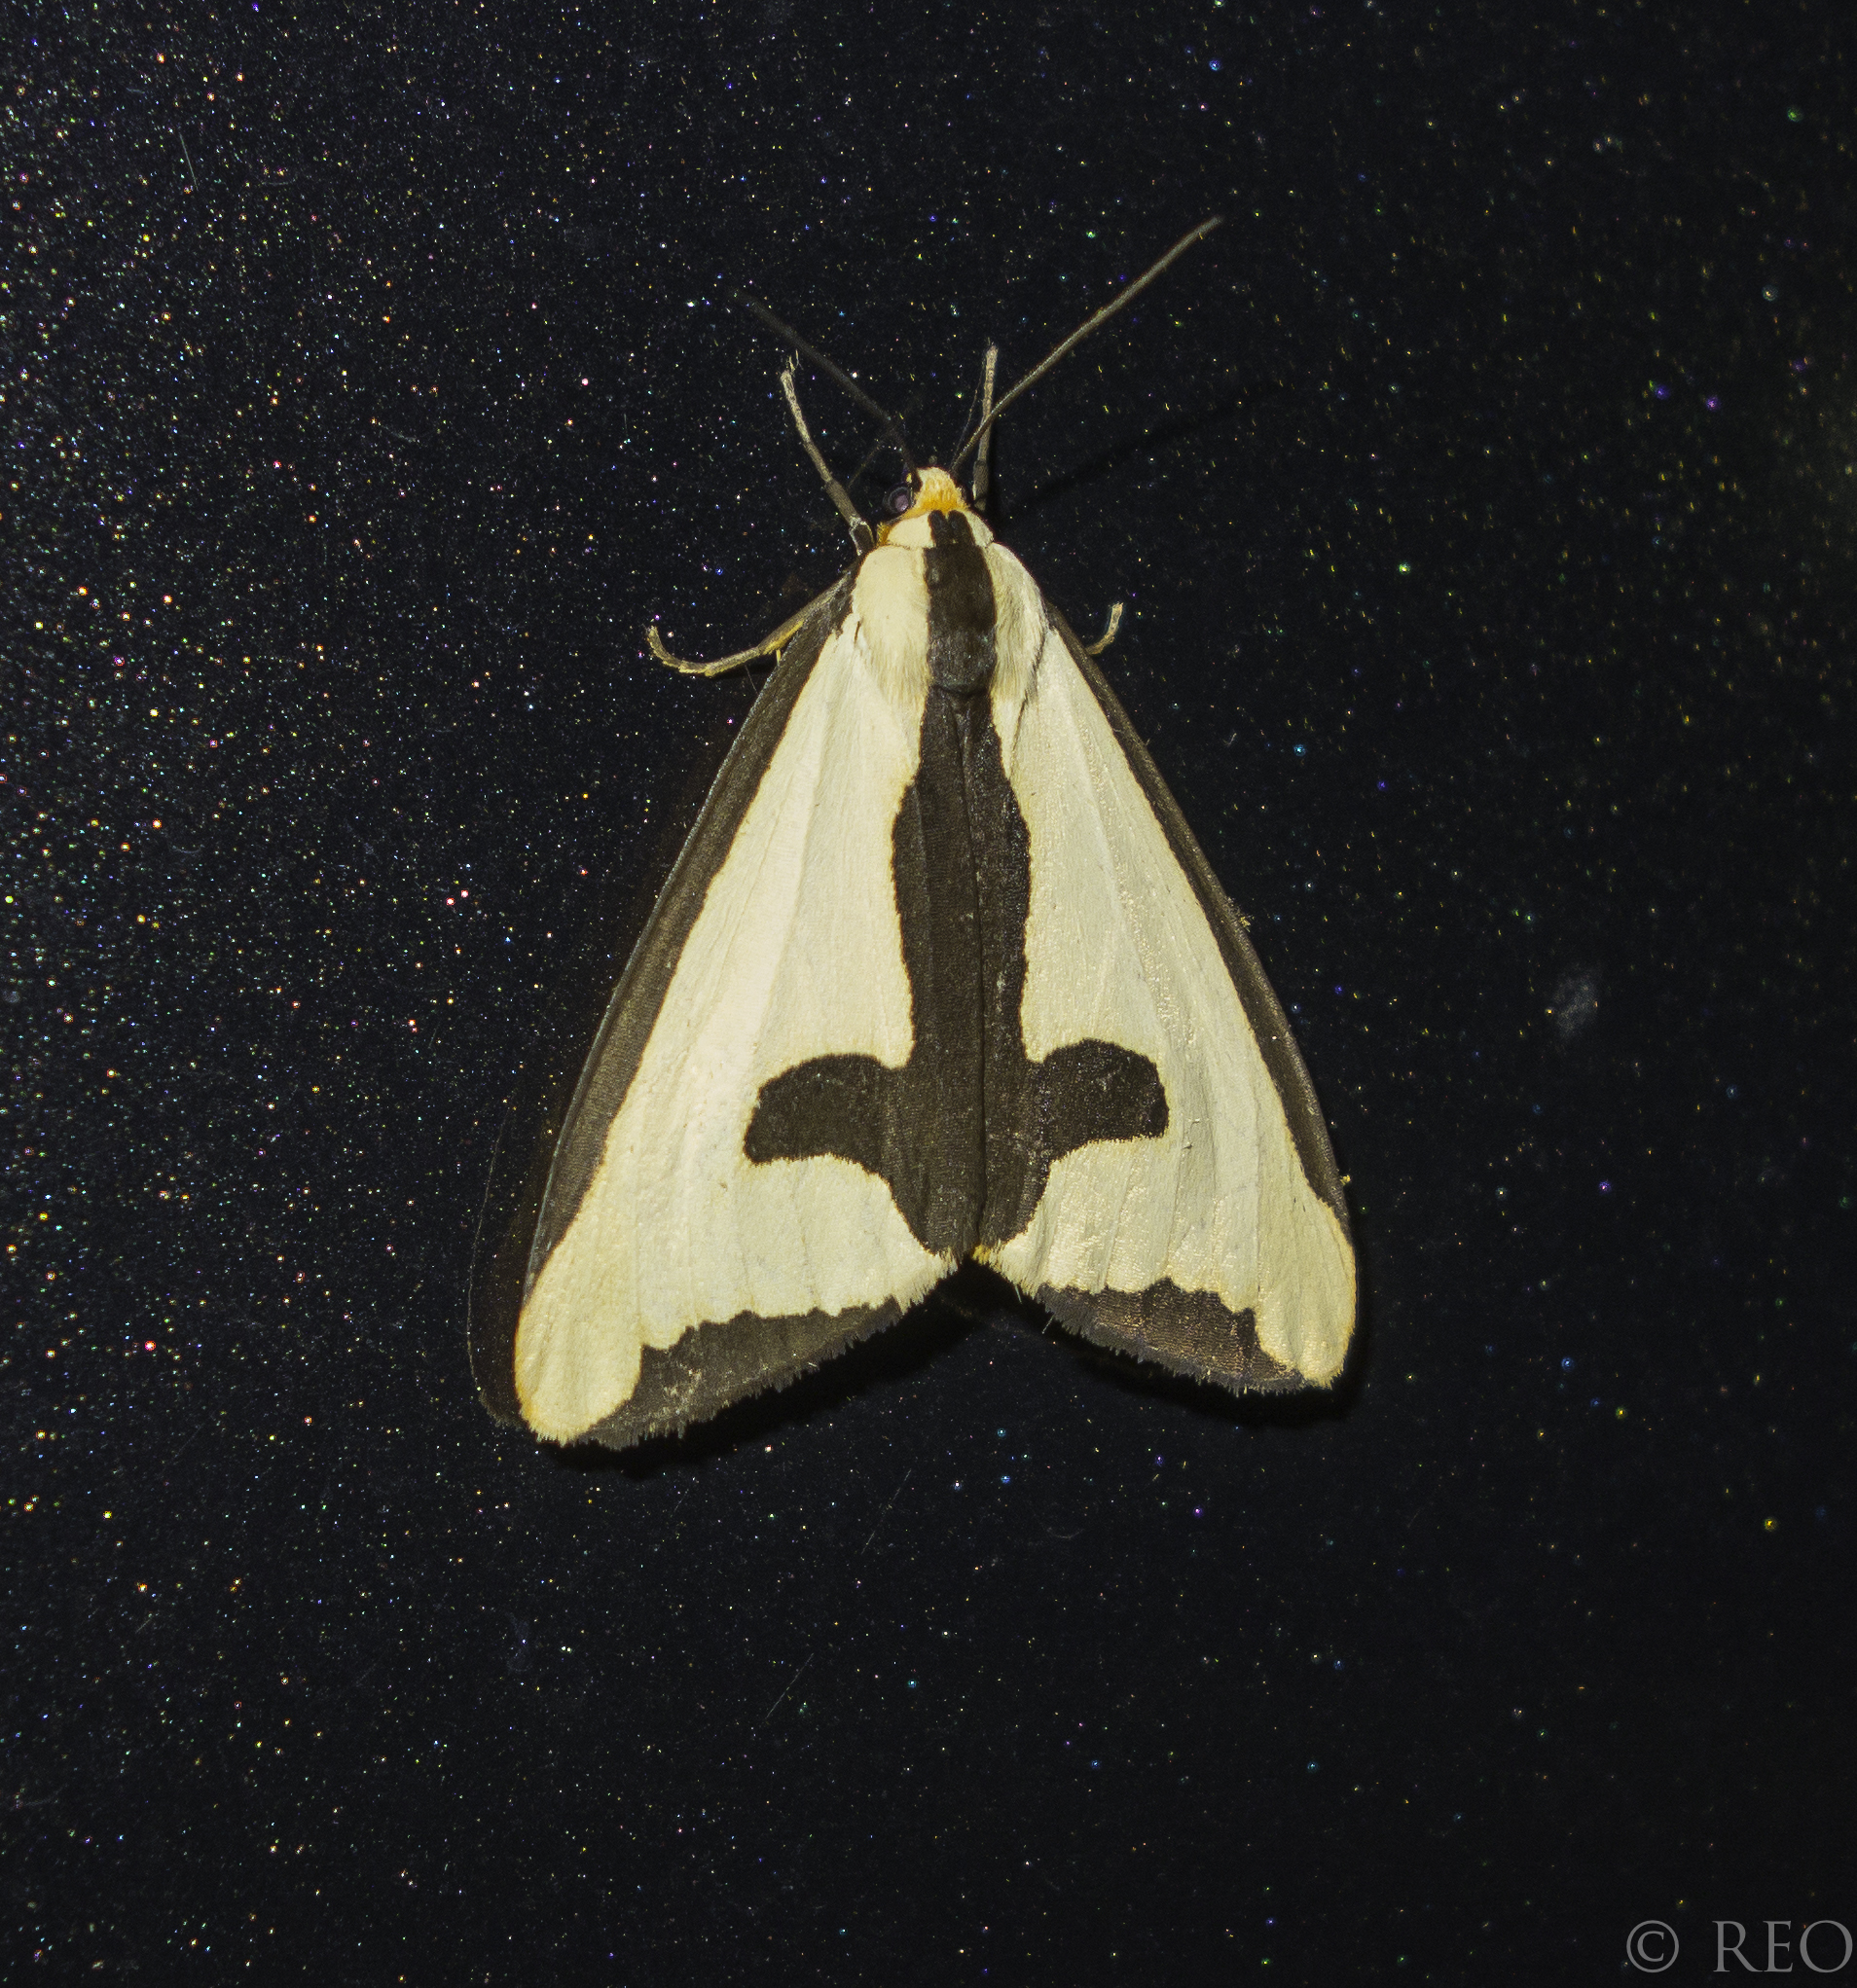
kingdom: Animalia
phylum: Arthropoda
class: Insecta
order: Lepidoptera
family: Erebidae
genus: Haploa
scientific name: Haploa clymene
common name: Clymene moth
